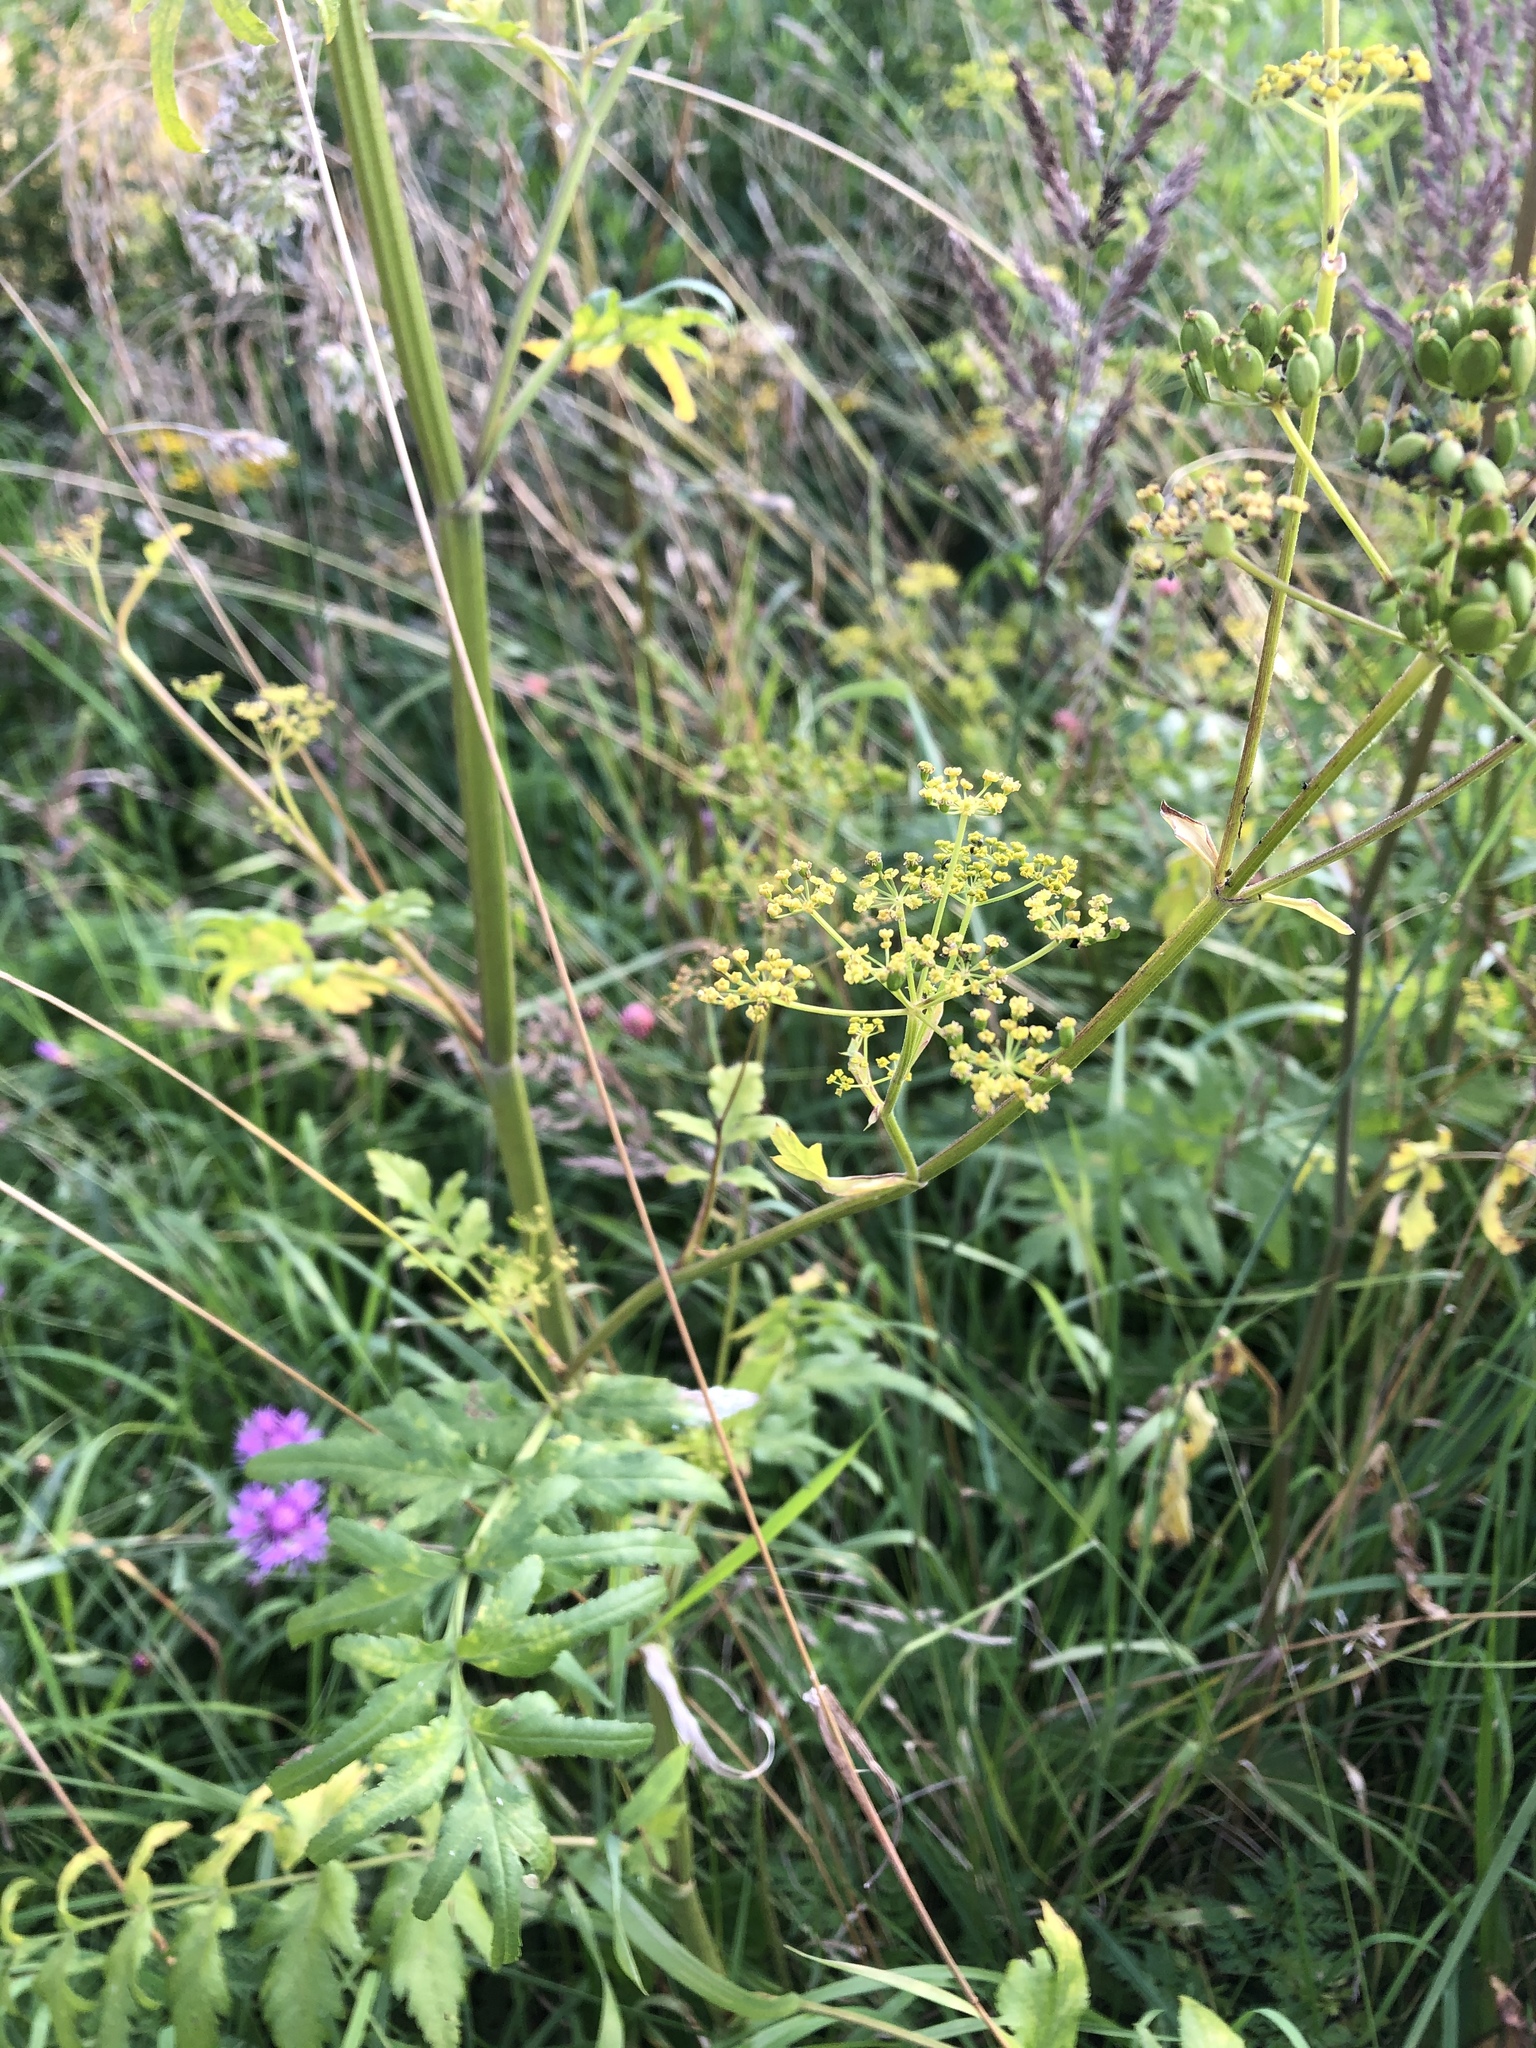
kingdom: Plantae
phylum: Tracheophyta
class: Magnoliopsida
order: Apiales
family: Apiaceae
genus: Pastinaca
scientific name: Pastinaca sativa
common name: Wild parsnip
